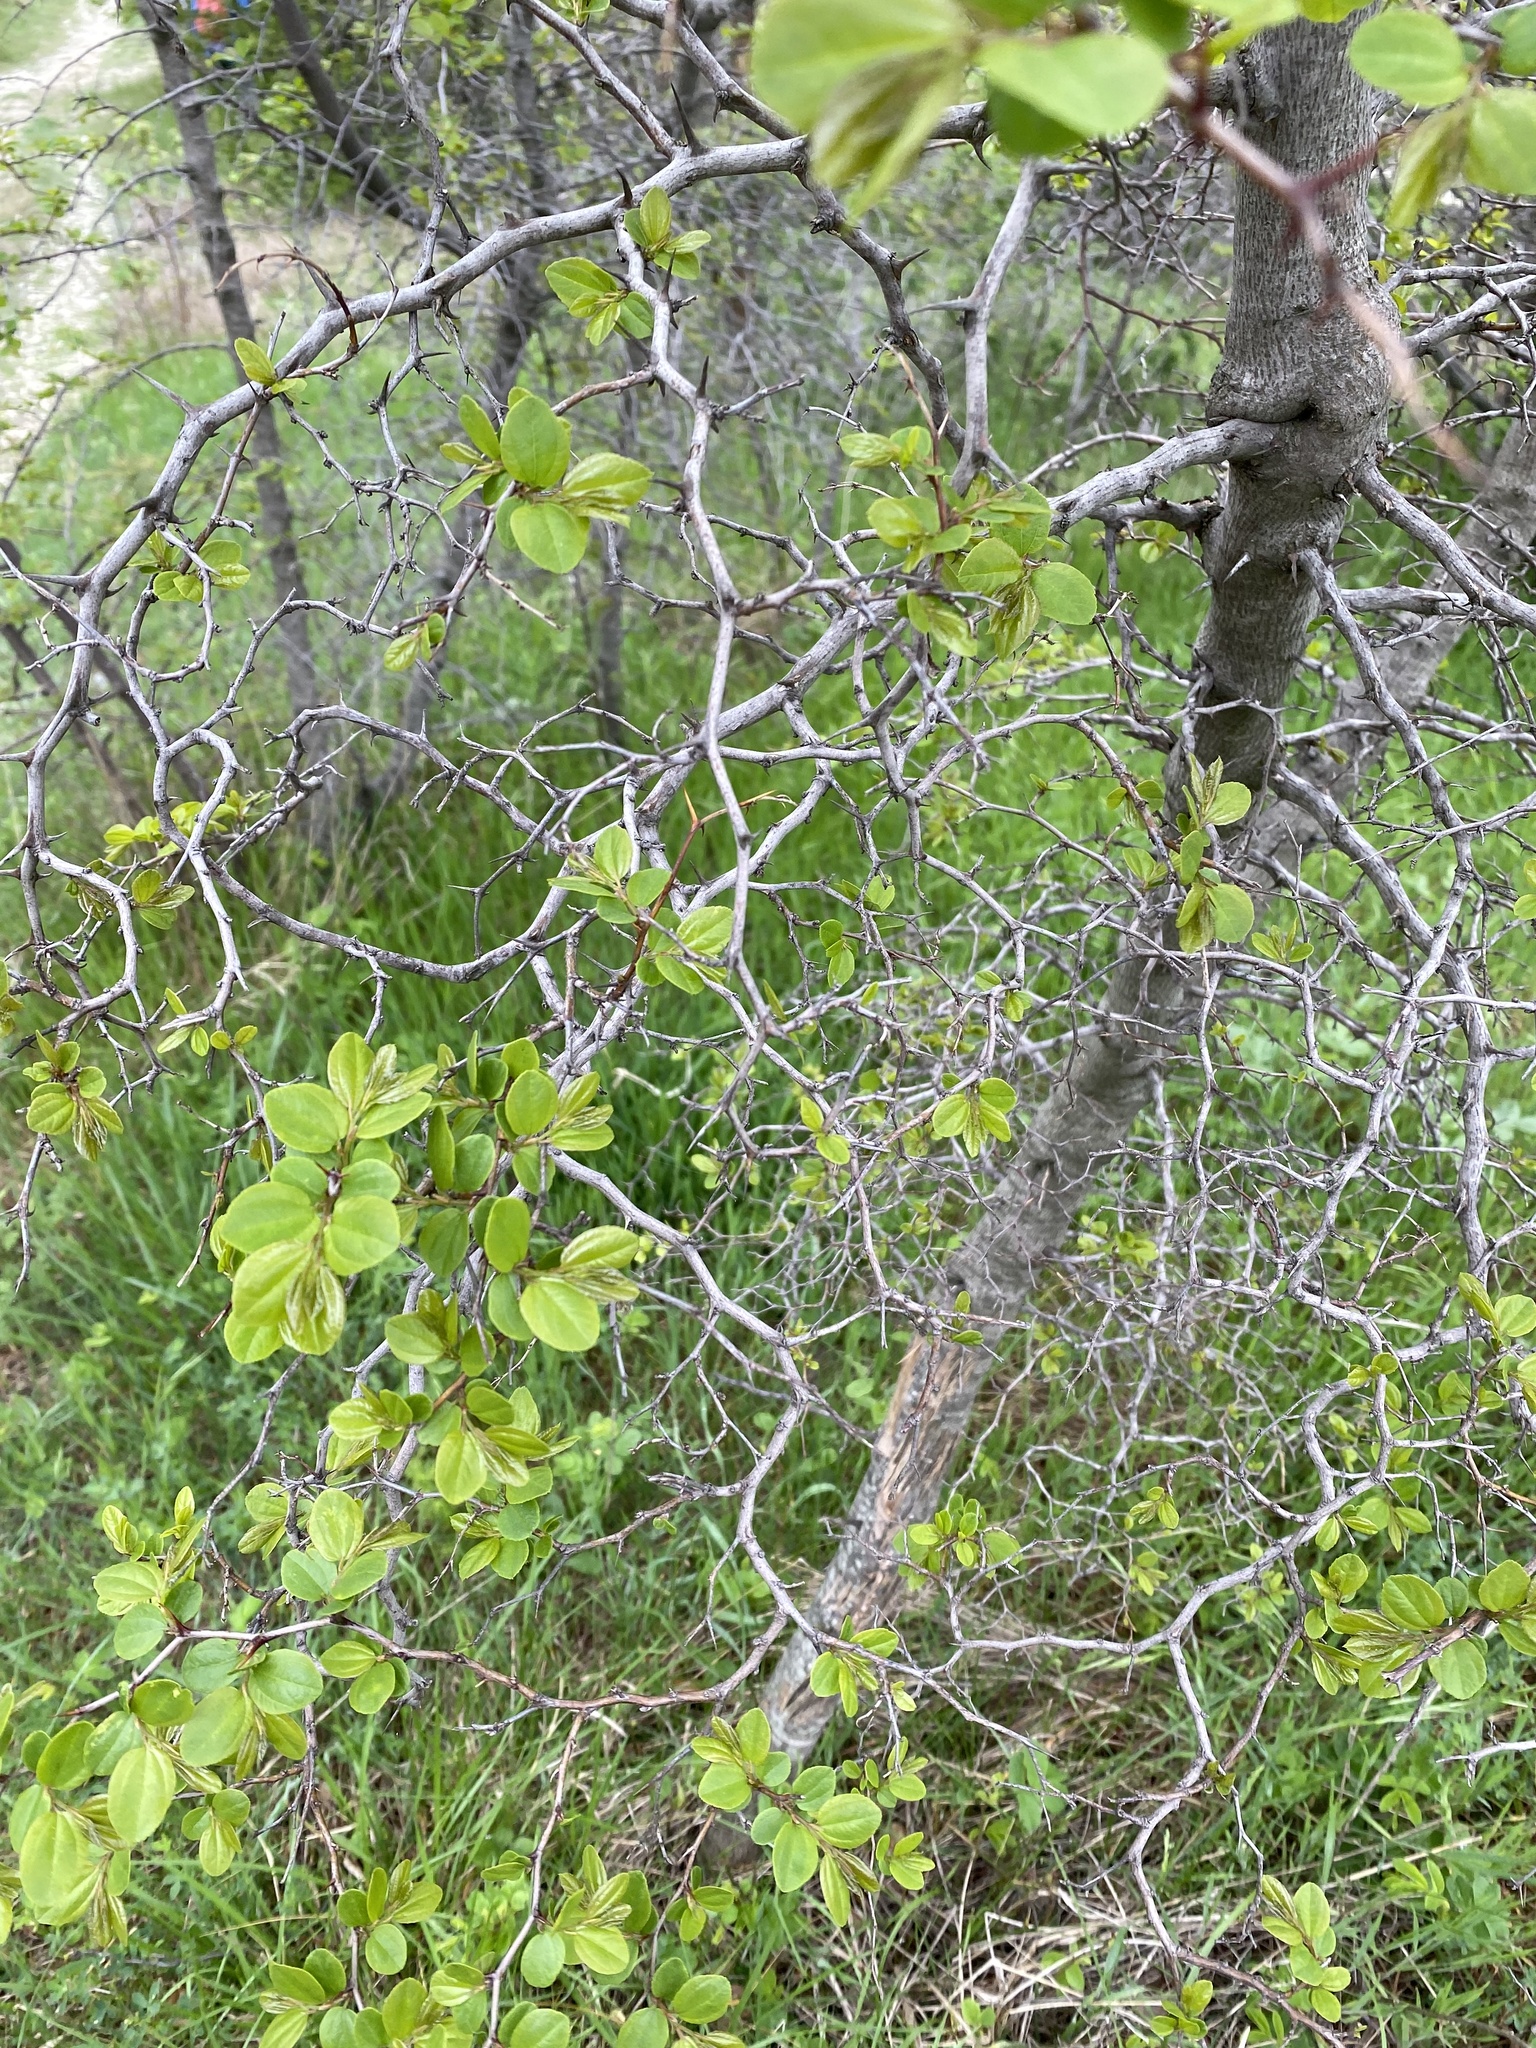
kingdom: Plantae
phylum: Tracheophyta
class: Magnoliopsida
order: Rosales
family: Rhamnaceae
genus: Paliurus
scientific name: Paliurus spina-christi
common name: Jeruselem thorn
